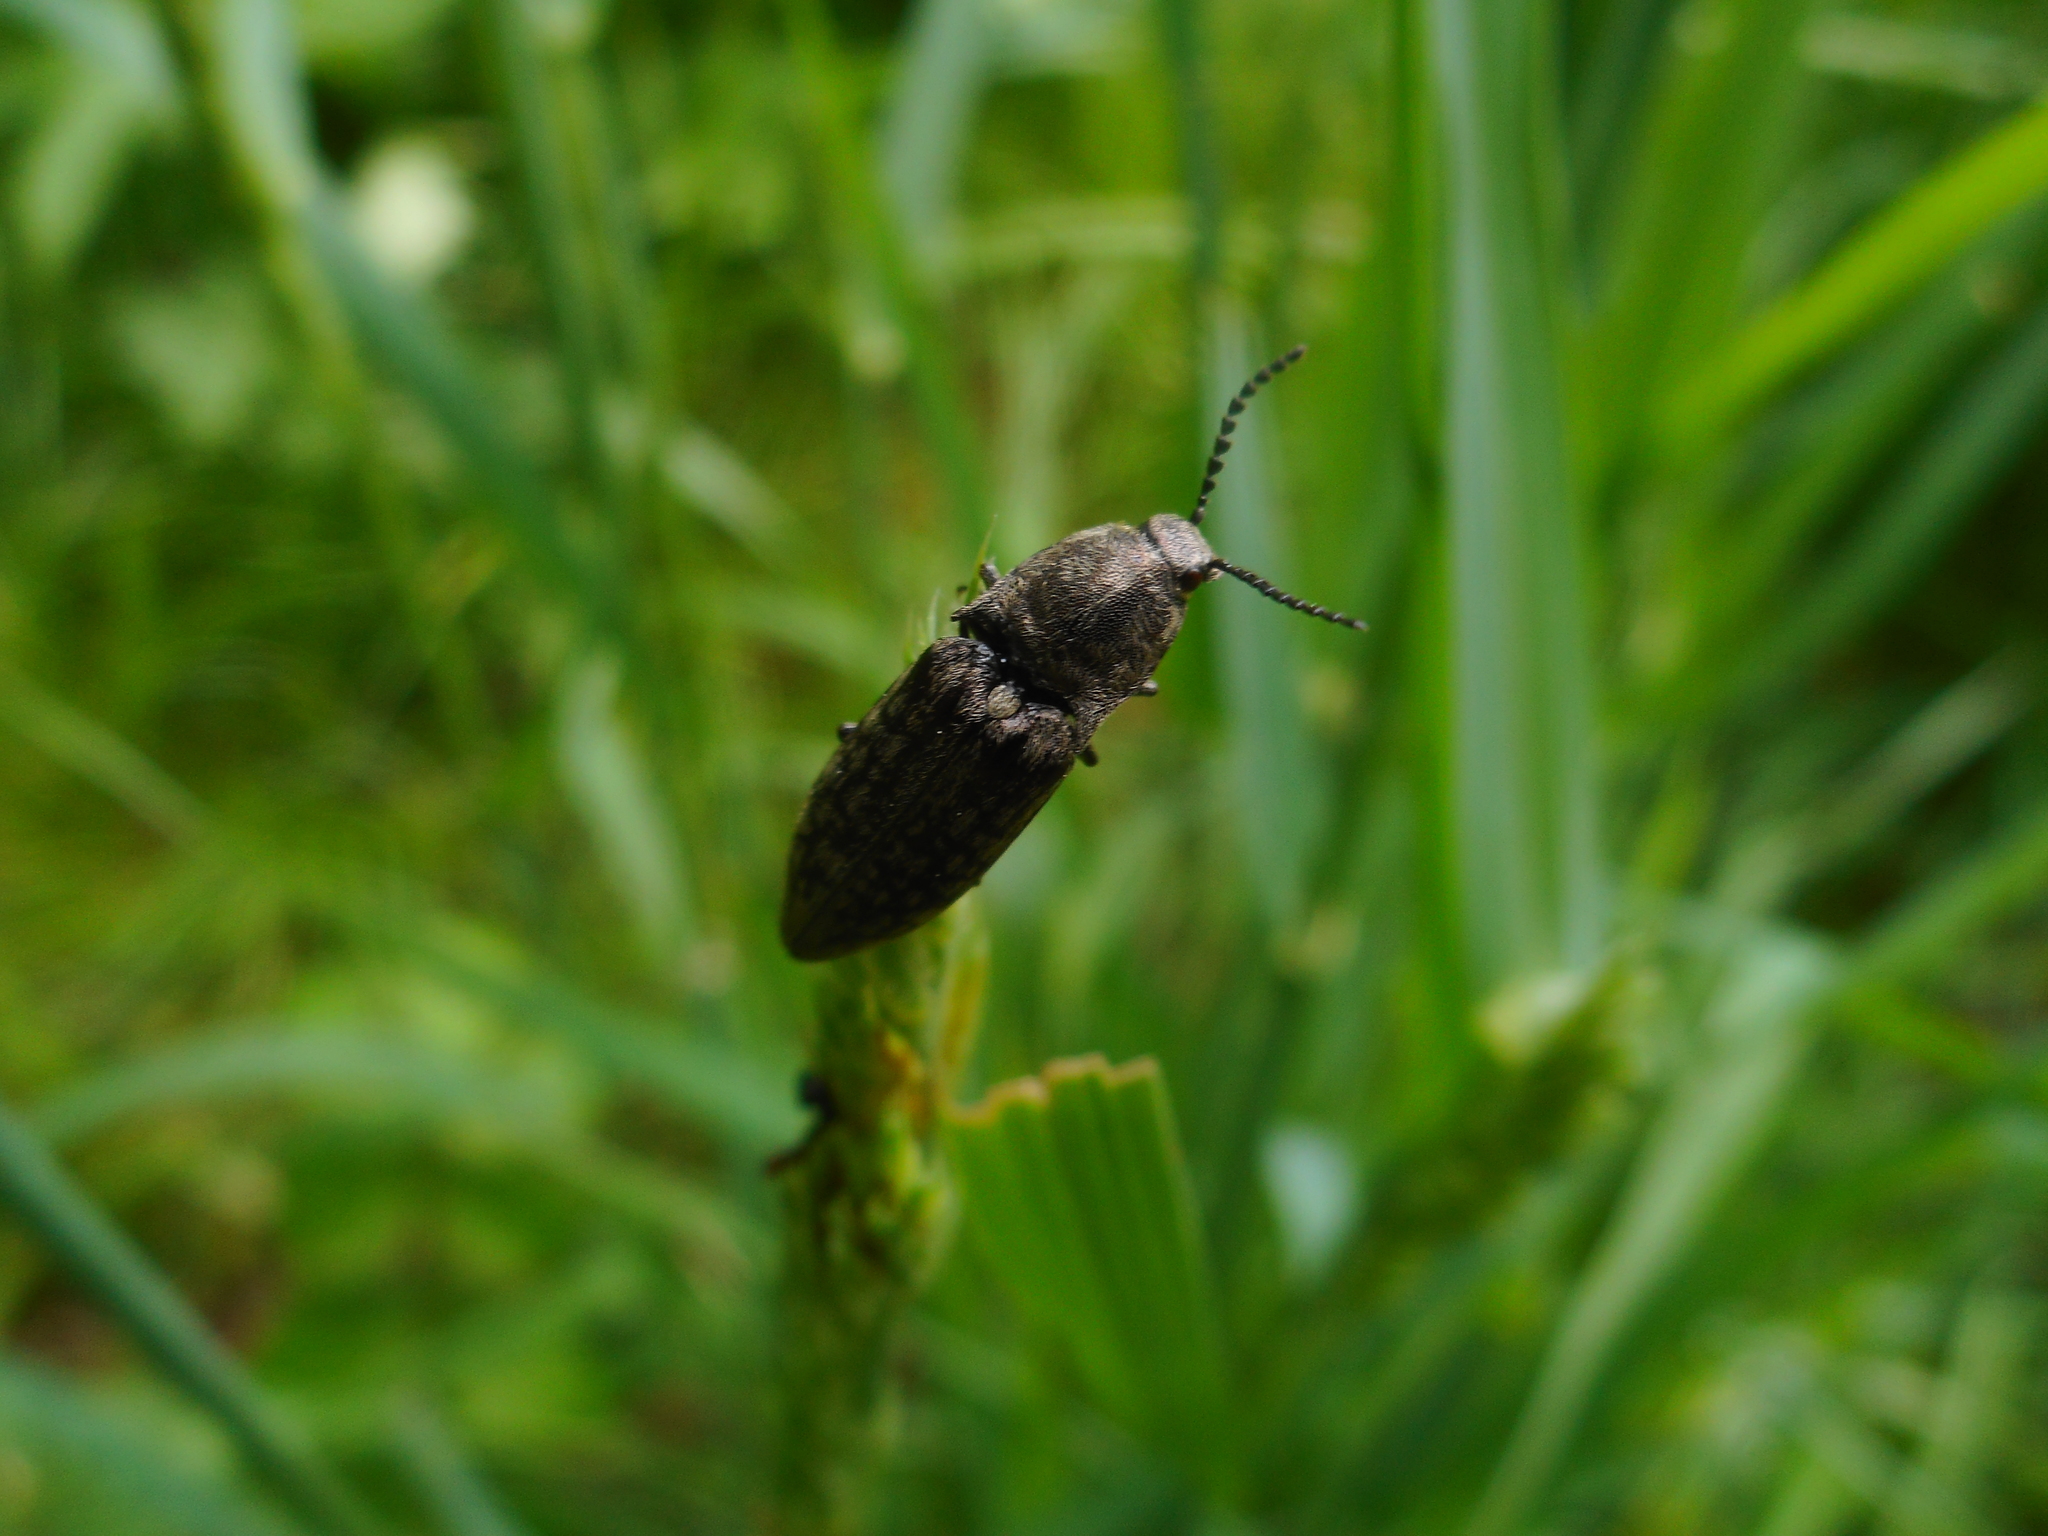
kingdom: Animalia
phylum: Arthropoda
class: Insecta
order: Coleoptera
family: Elateridae
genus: Actenicerus
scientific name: Actenicerus sjaelandicus
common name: Marsh click beetle
